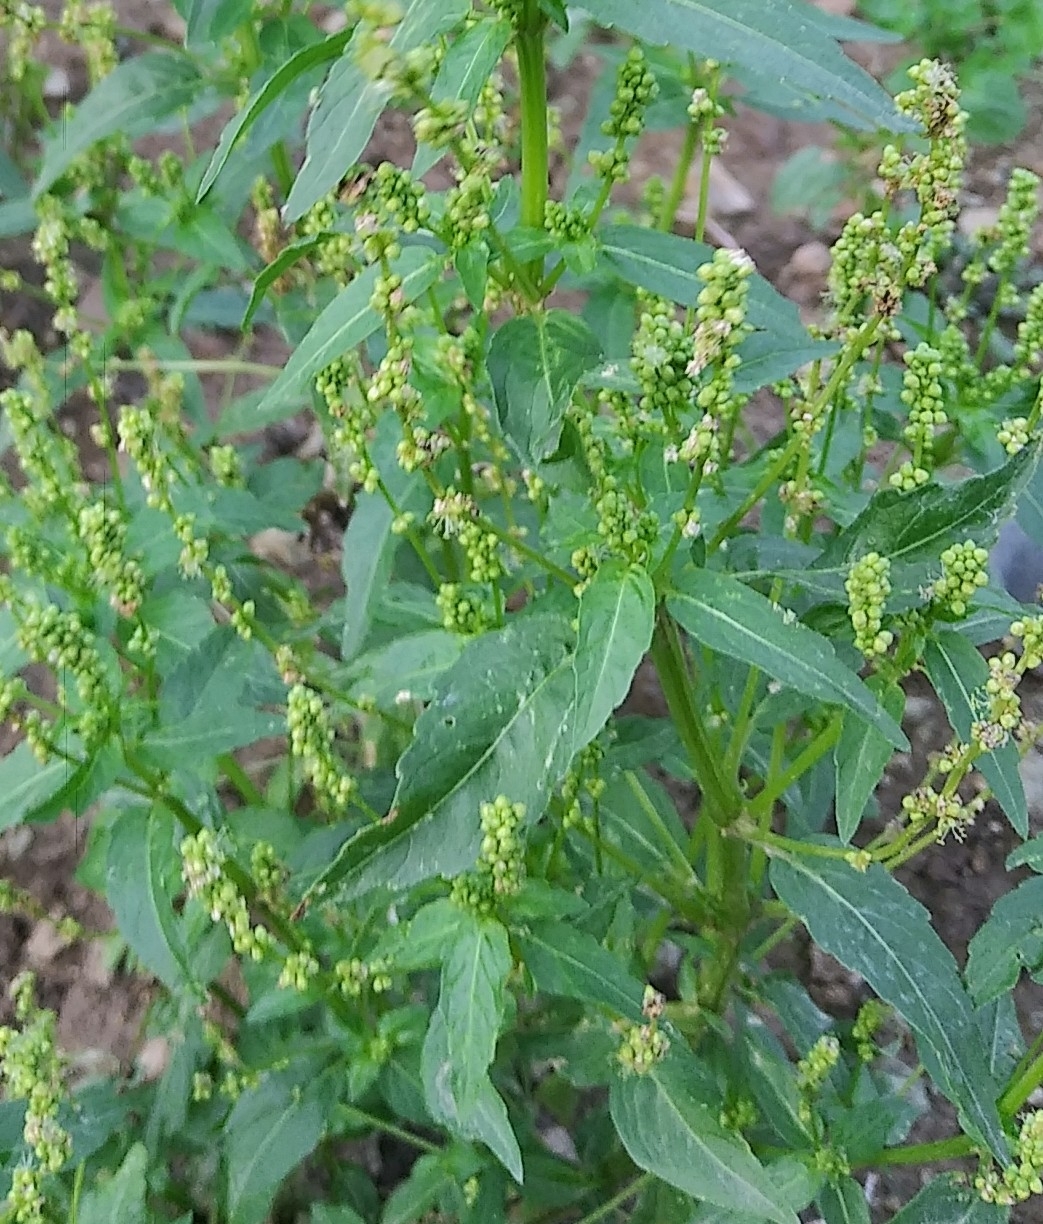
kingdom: Plantae
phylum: Tracheophyta
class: Magnoliopsida
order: Malpighiales
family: Euphorbiaceae
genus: Mercurialis
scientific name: Mercurialis annua
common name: Annual mercury
